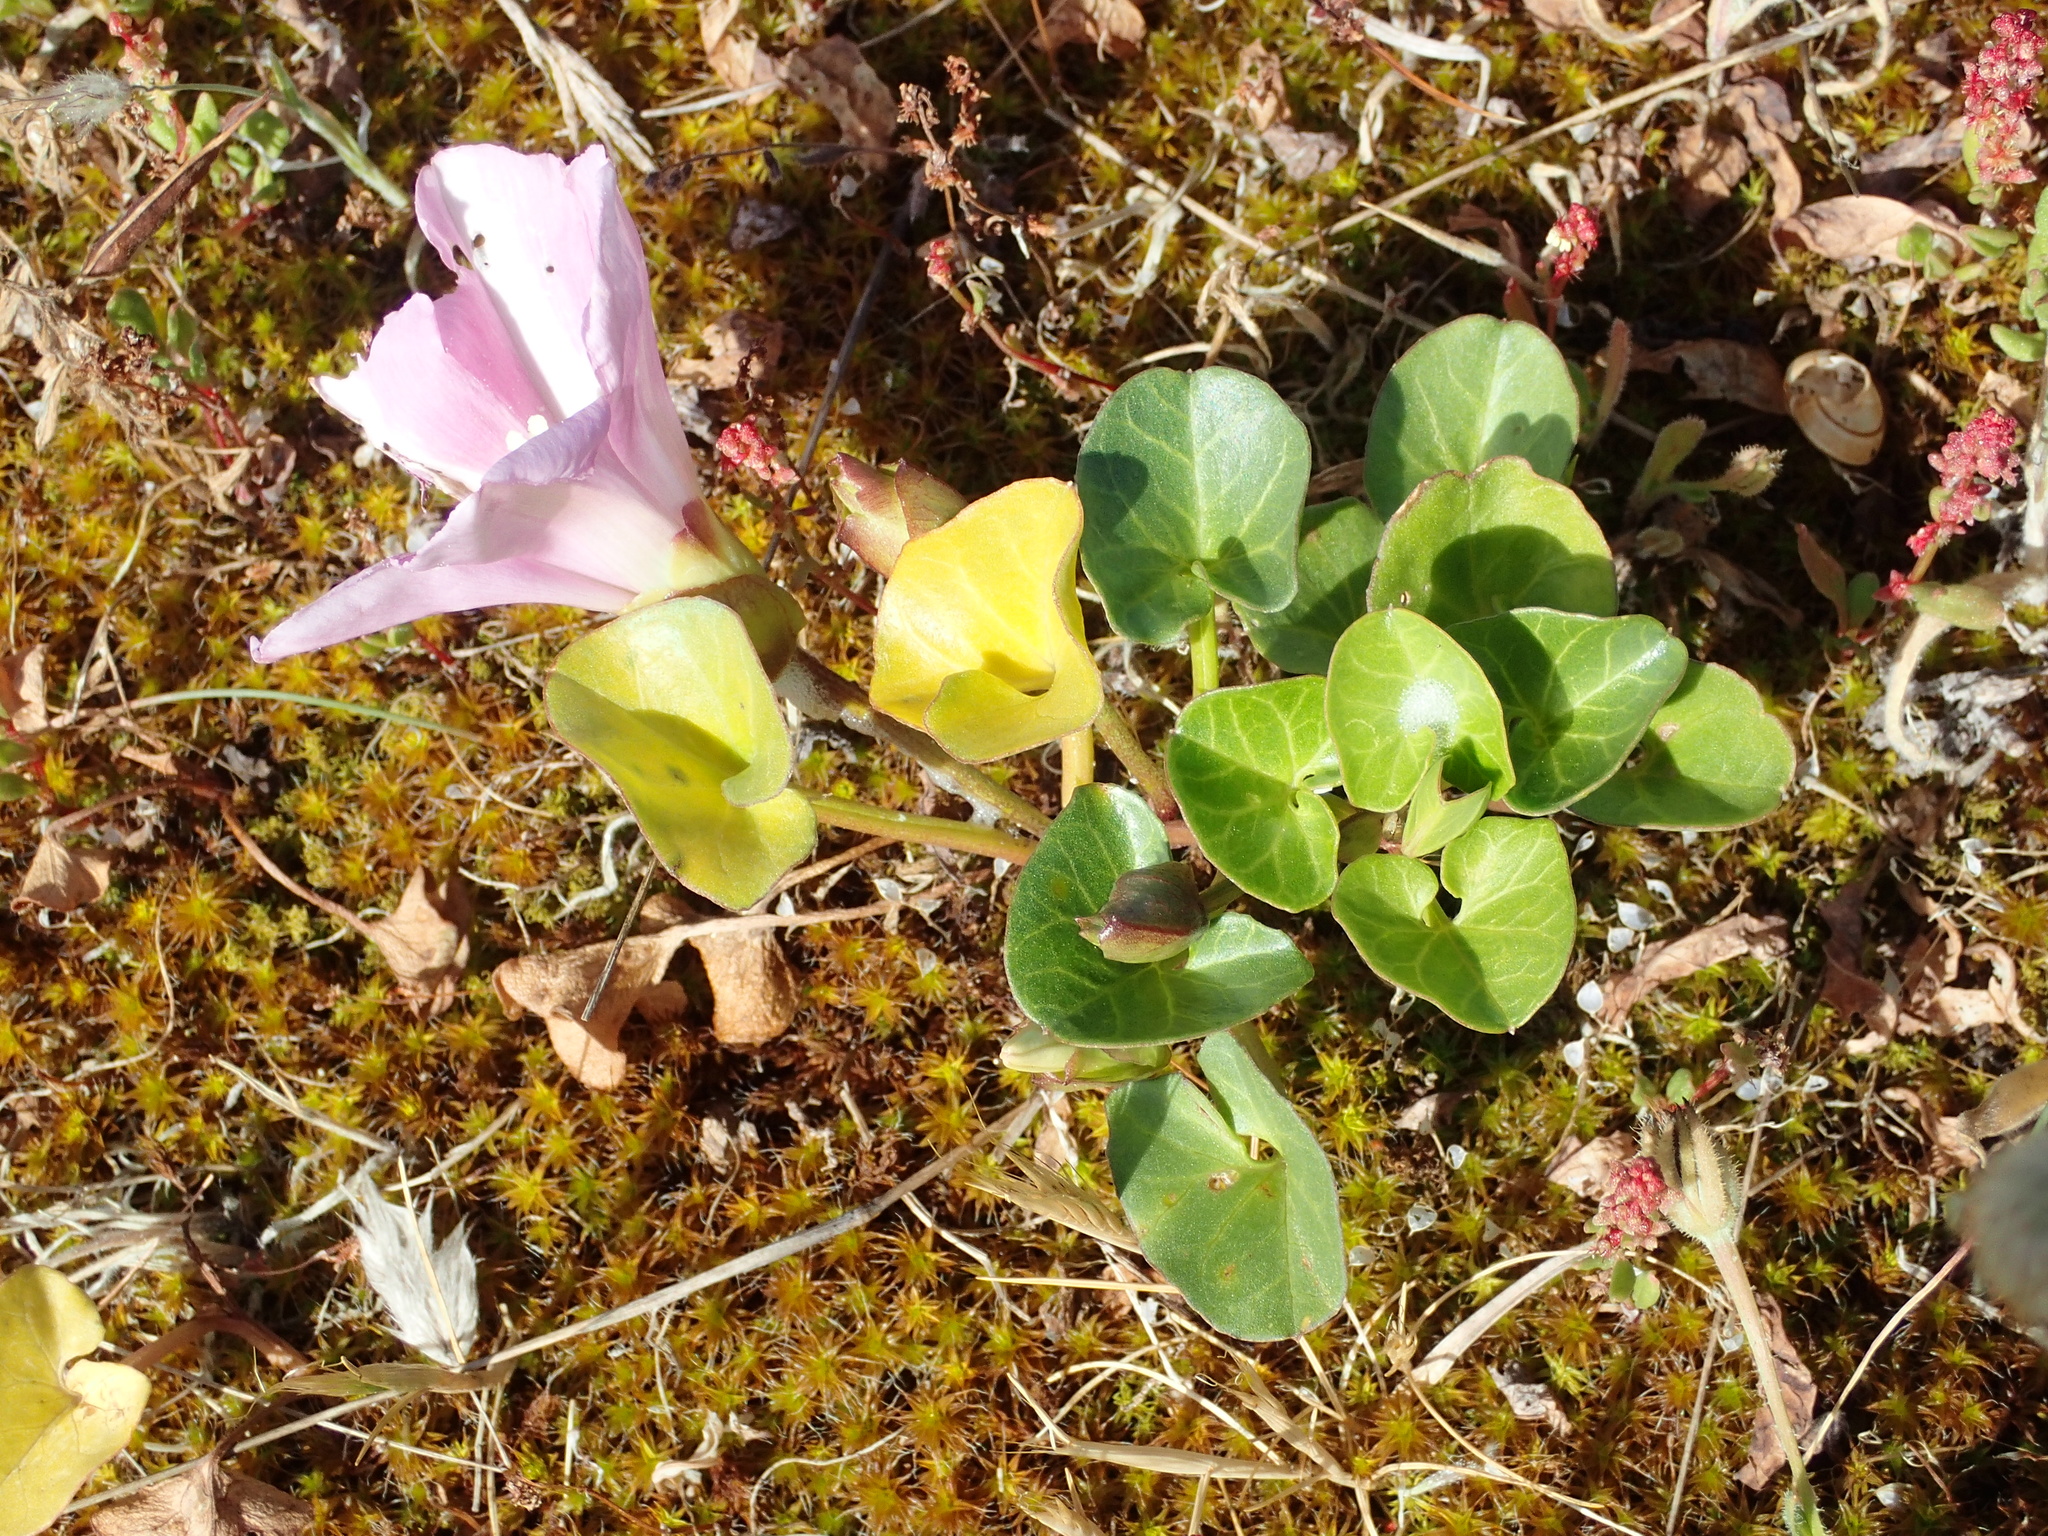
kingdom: Plantae
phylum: Tracheophyta
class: Magnoliopsida
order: Solanales
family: Convolvulaceae
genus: Calystegia
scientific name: Calystegia soldanella
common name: Sea bindweed
